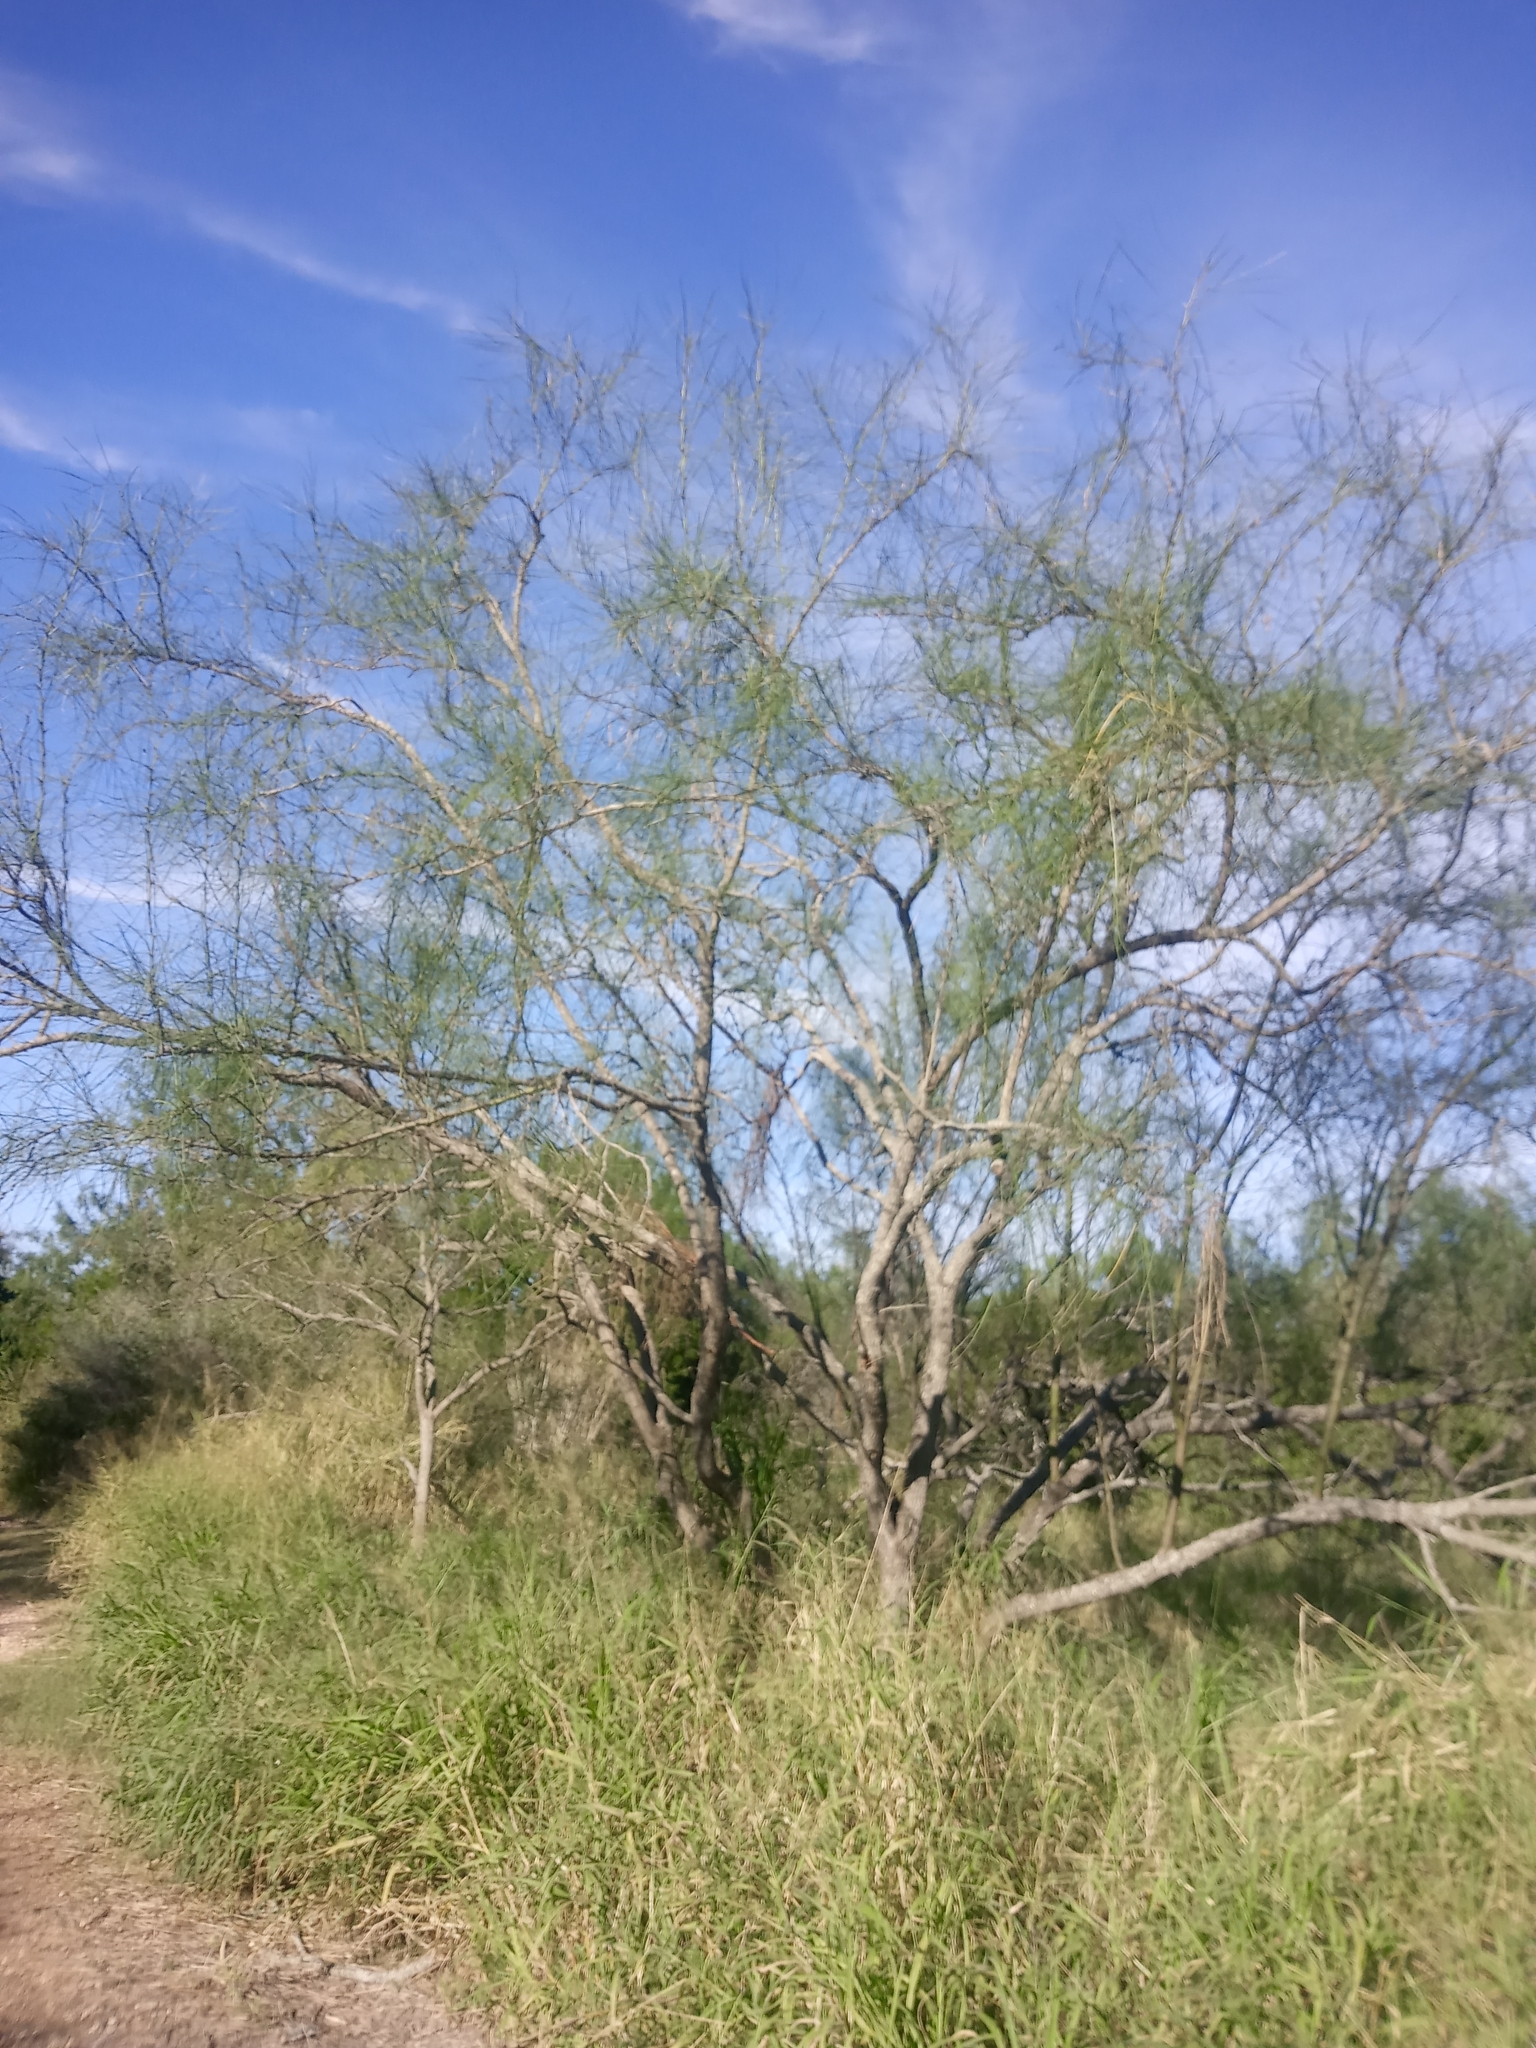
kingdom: Plantae
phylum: Tracheophyta
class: Magnoliopsida
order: Fabales
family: Fabaceae
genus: Parkinsonia
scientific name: Parkinsonia aculeata
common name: Jerusalem thorn
